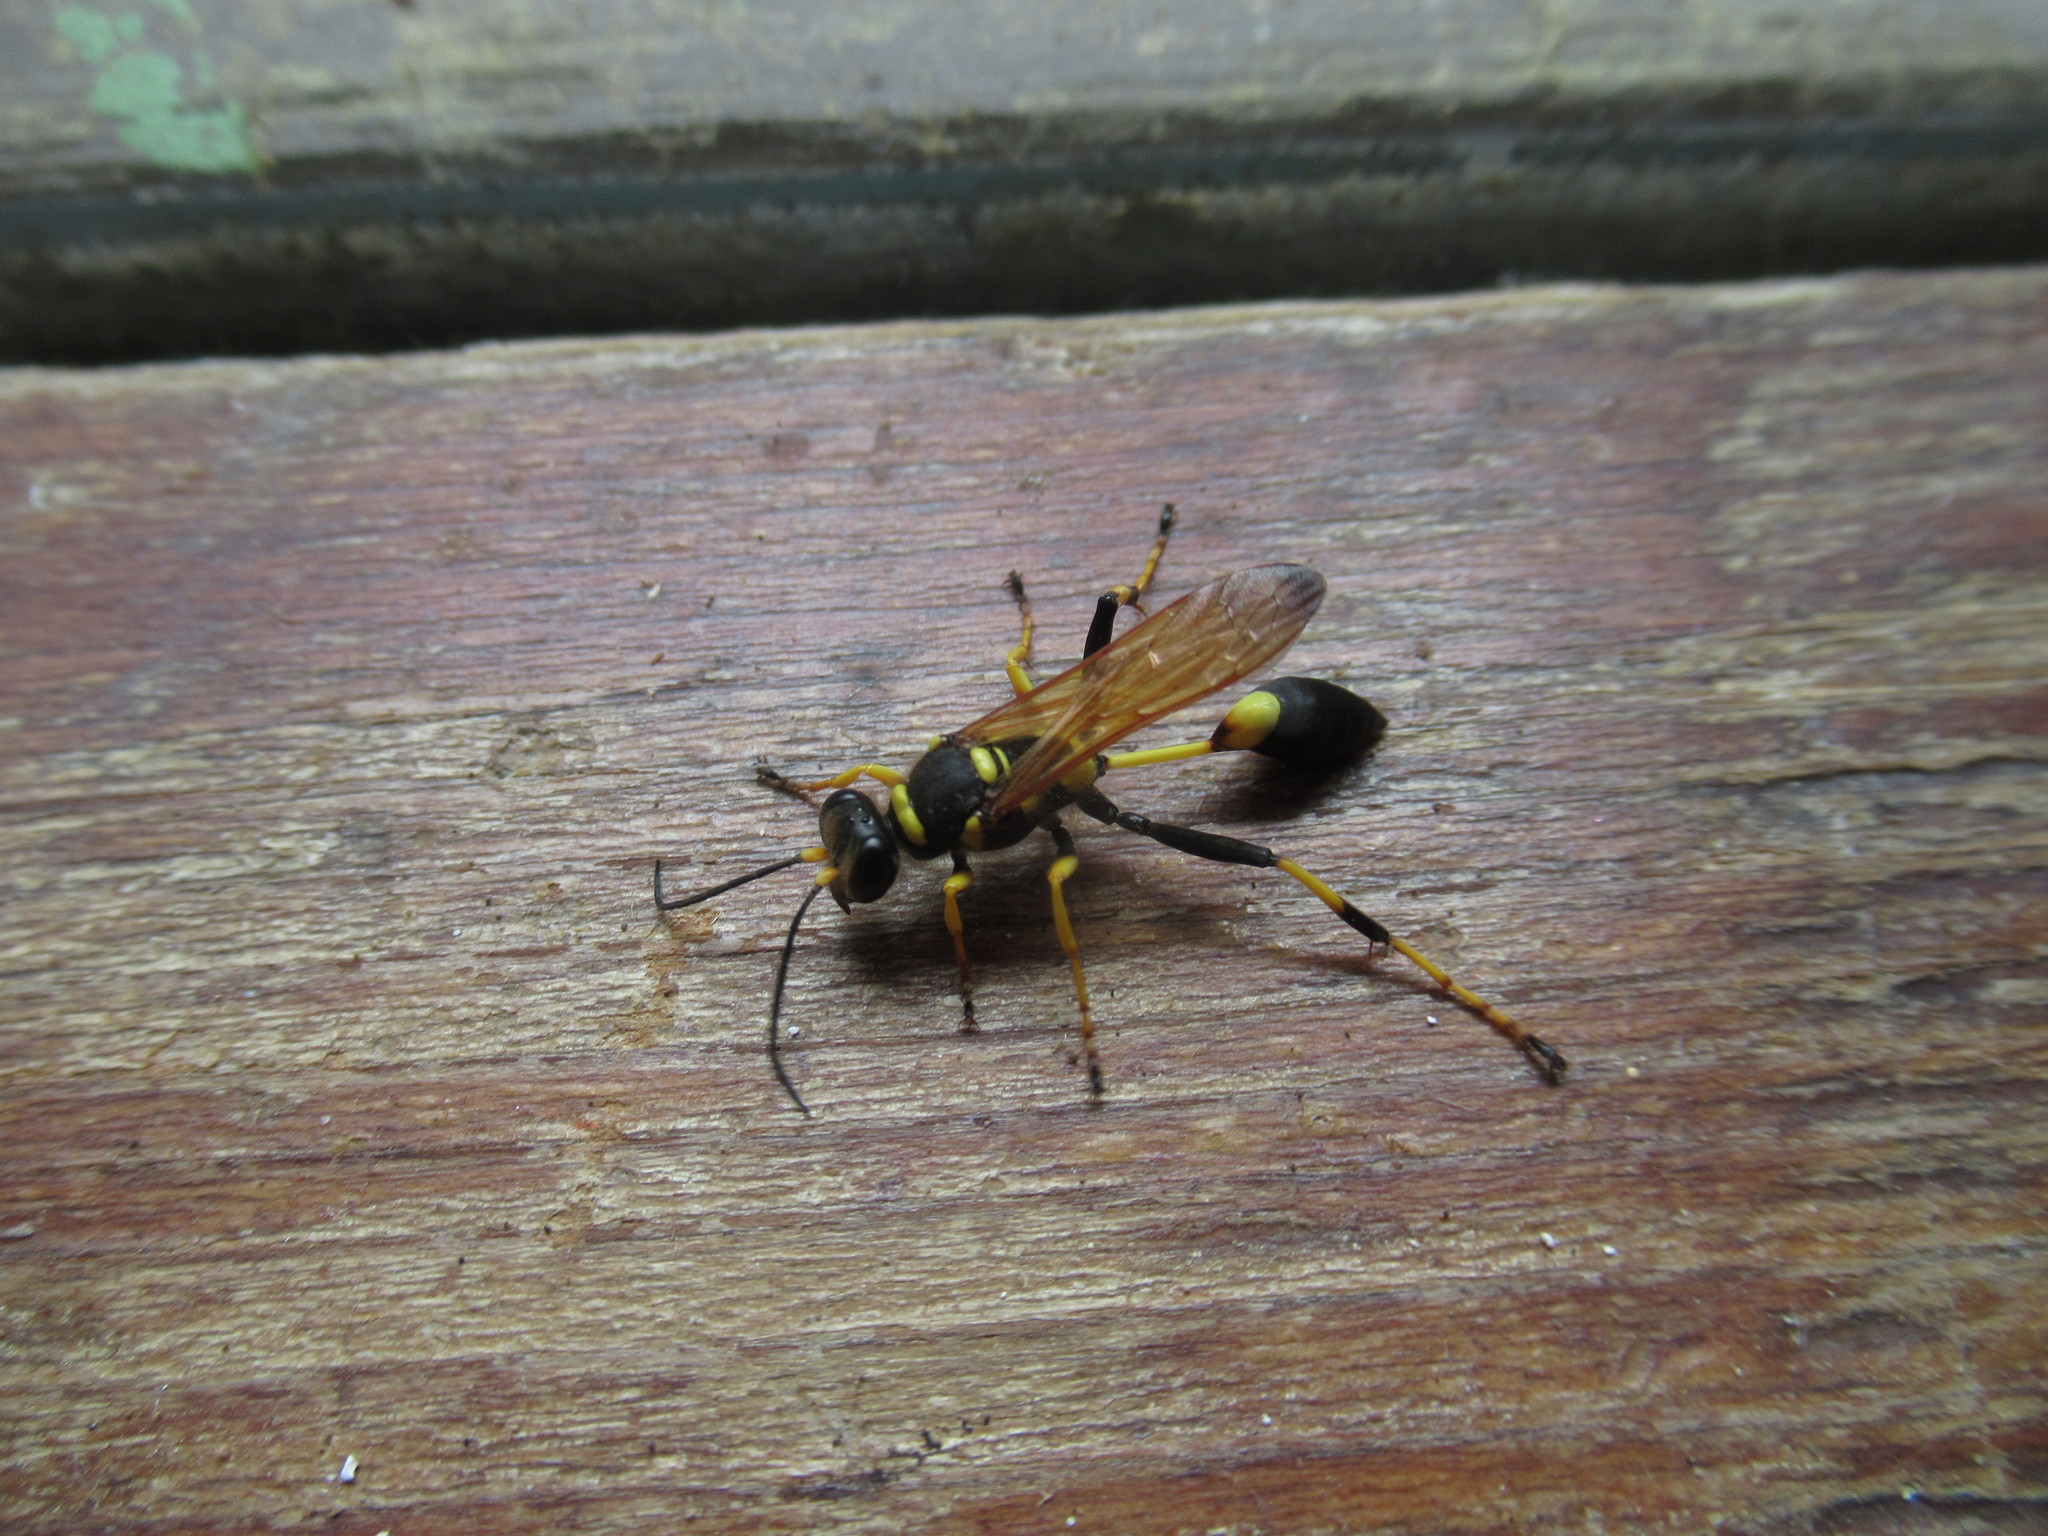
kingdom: Animalia
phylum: Arthropoda
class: Insecta
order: Hymenoptera
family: Sphecidae
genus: Sceliphron
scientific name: Sceliphron caementarium
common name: Mud dauber
